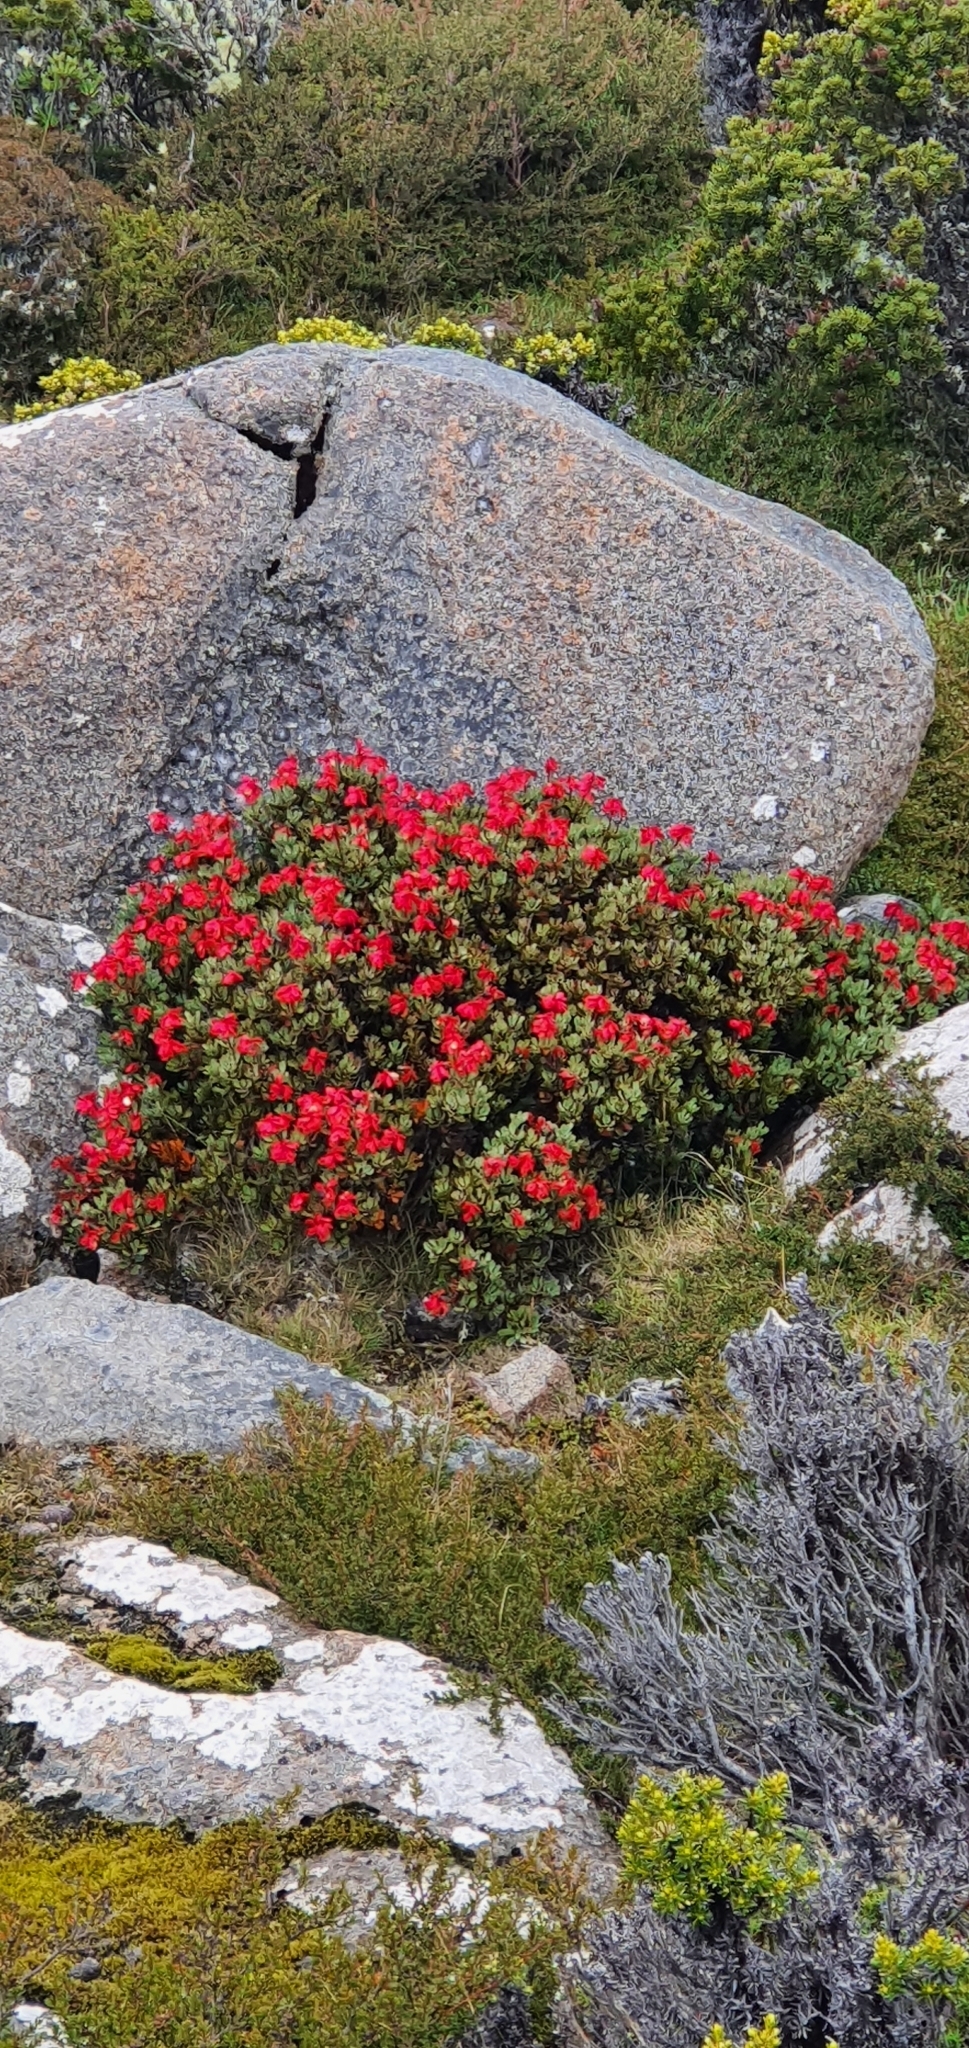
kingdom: Plantae
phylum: Tracheophyta
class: Magnoliopsida
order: Proteales
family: Proteaceae
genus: Bellendena
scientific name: Bellendena montana
